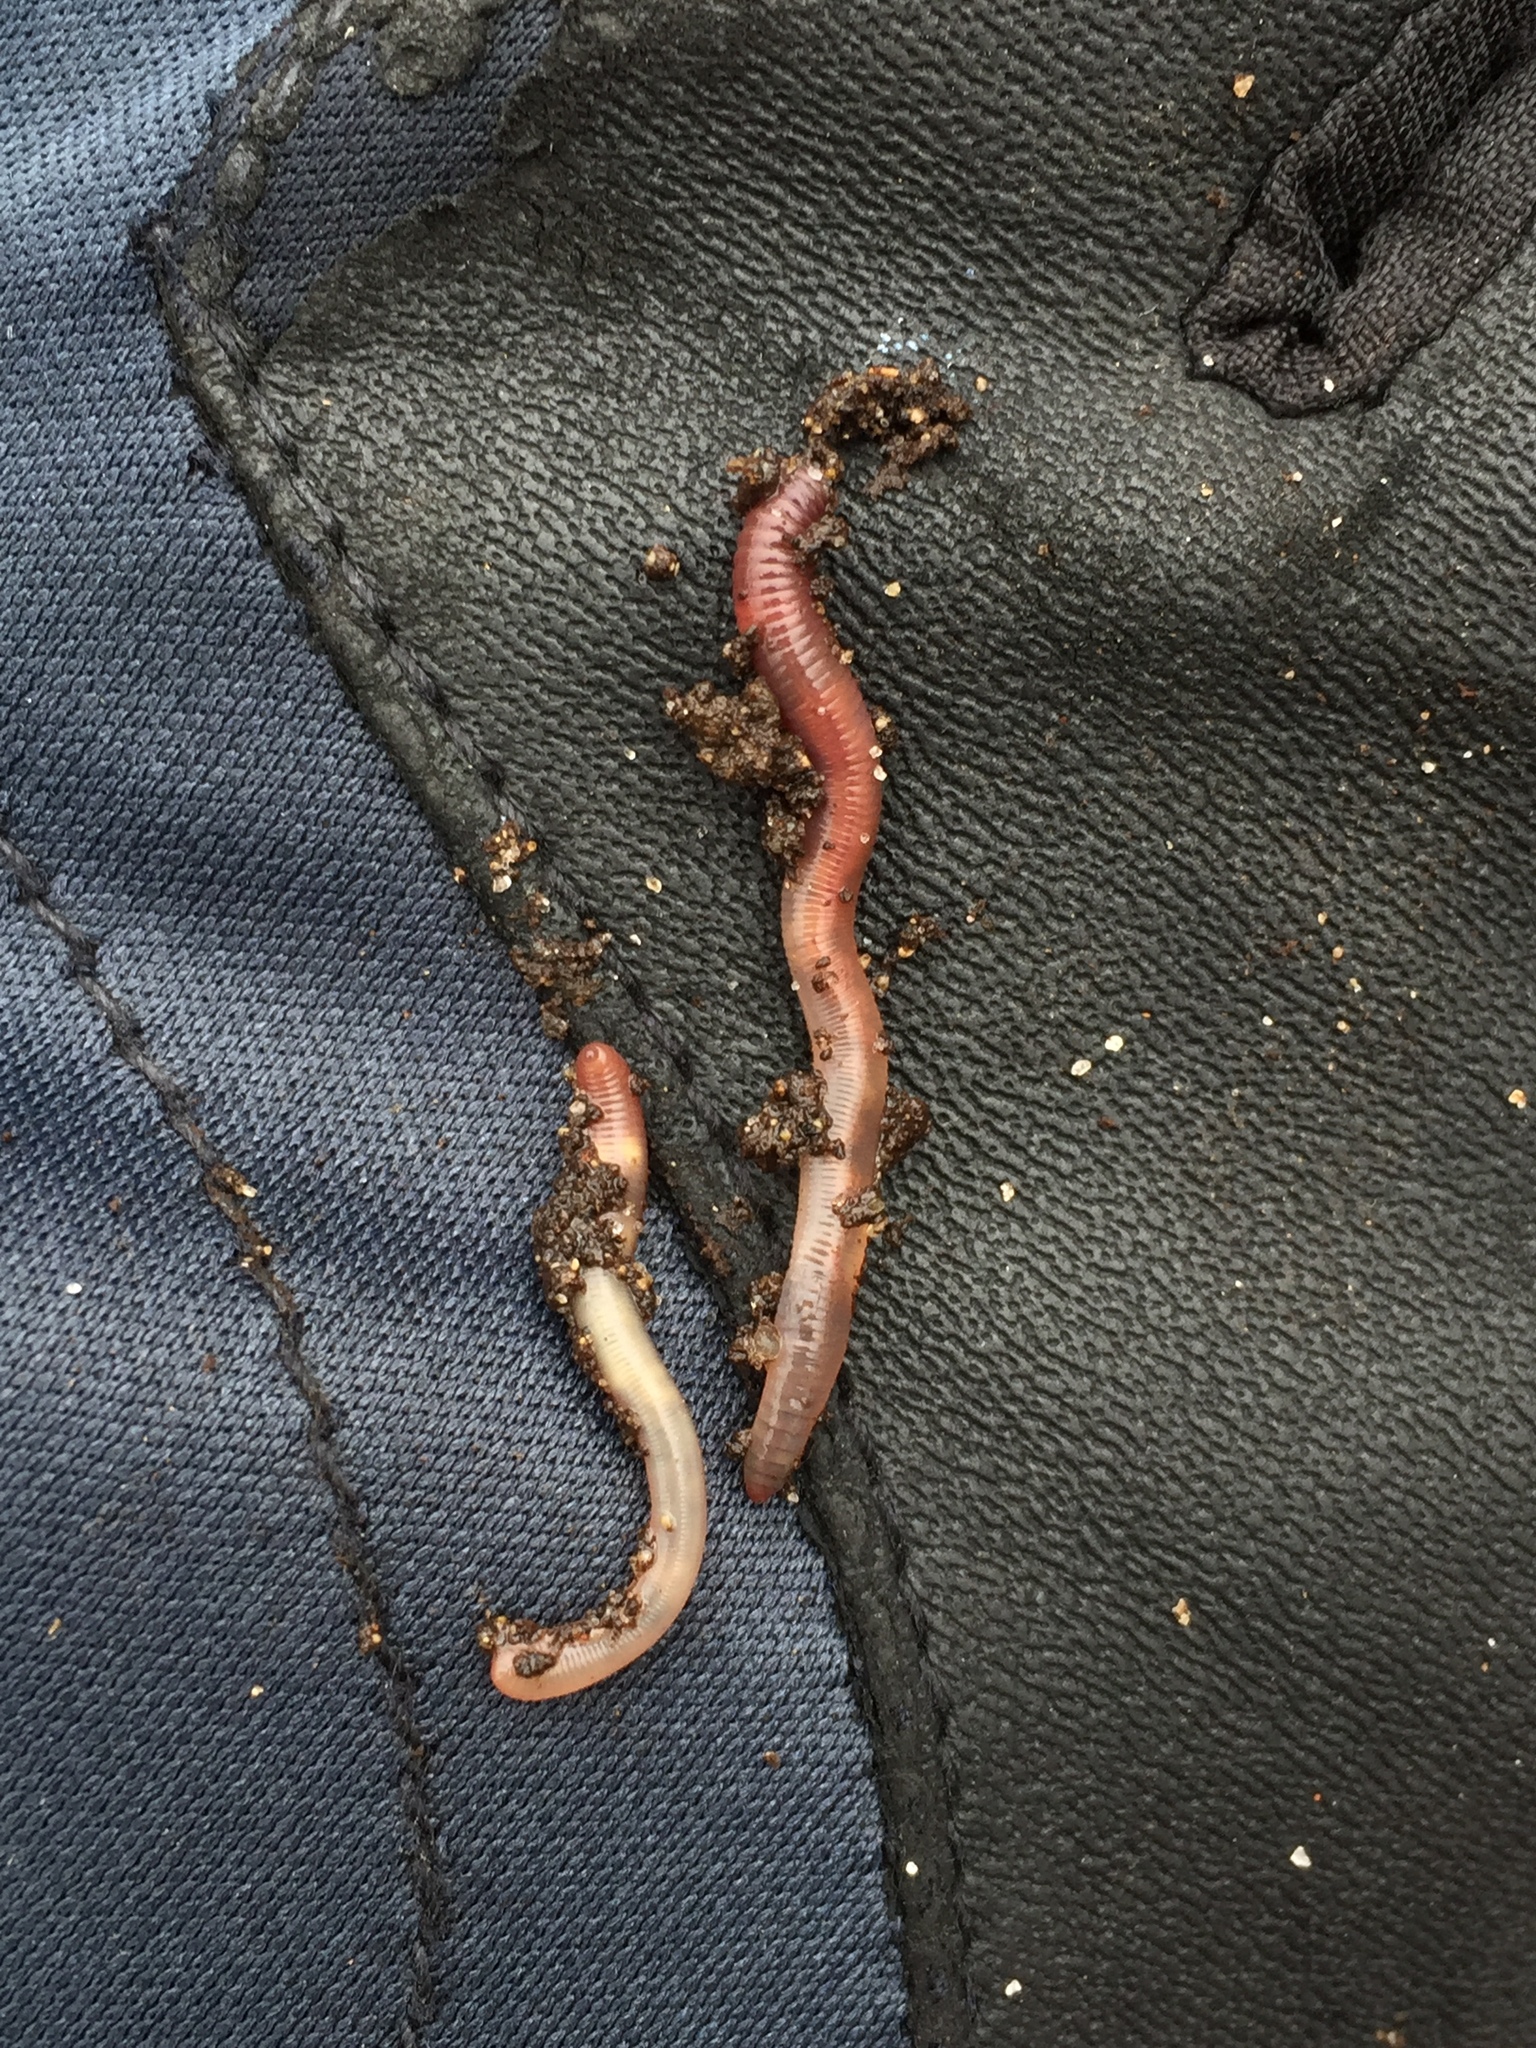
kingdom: Animalia
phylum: Annelida
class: Clitellata
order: Crassiclitellata
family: Lumbricidae
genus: Lumbricus
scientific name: Lumbricus terrestris
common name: Common earthworm
